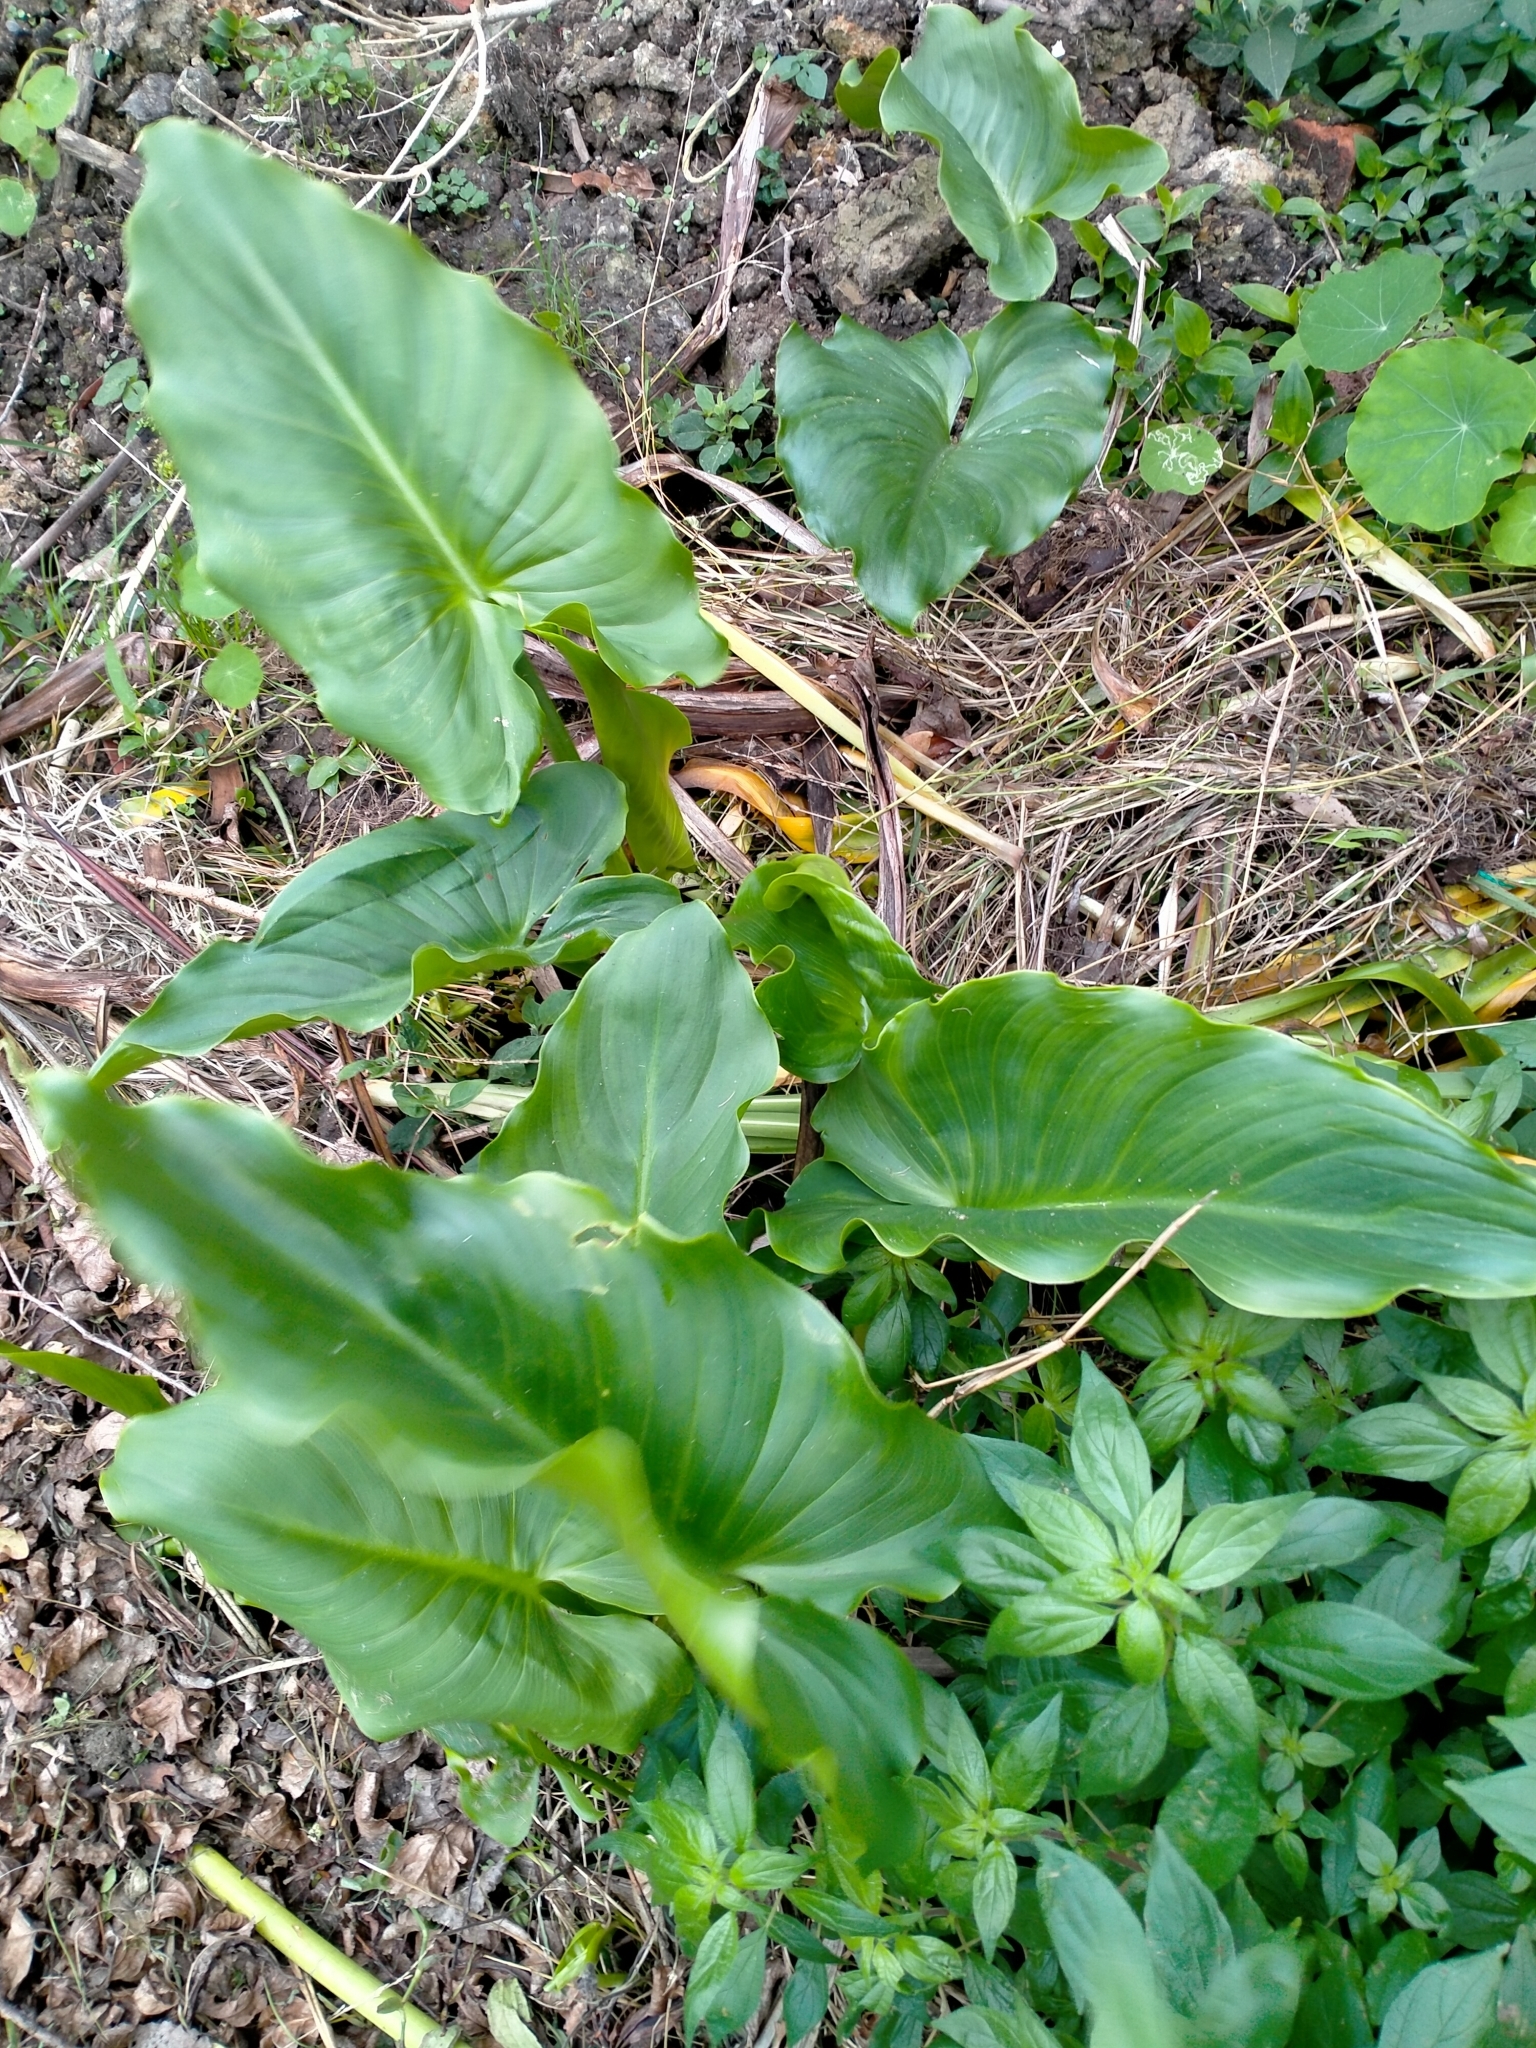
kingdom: Plantae
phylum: Tracheophyta
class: Liliopsida
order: Alismatales
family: Araceae
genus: Zantedeschia
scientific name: Zantedeschia aethiopica
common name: Altar-lily
